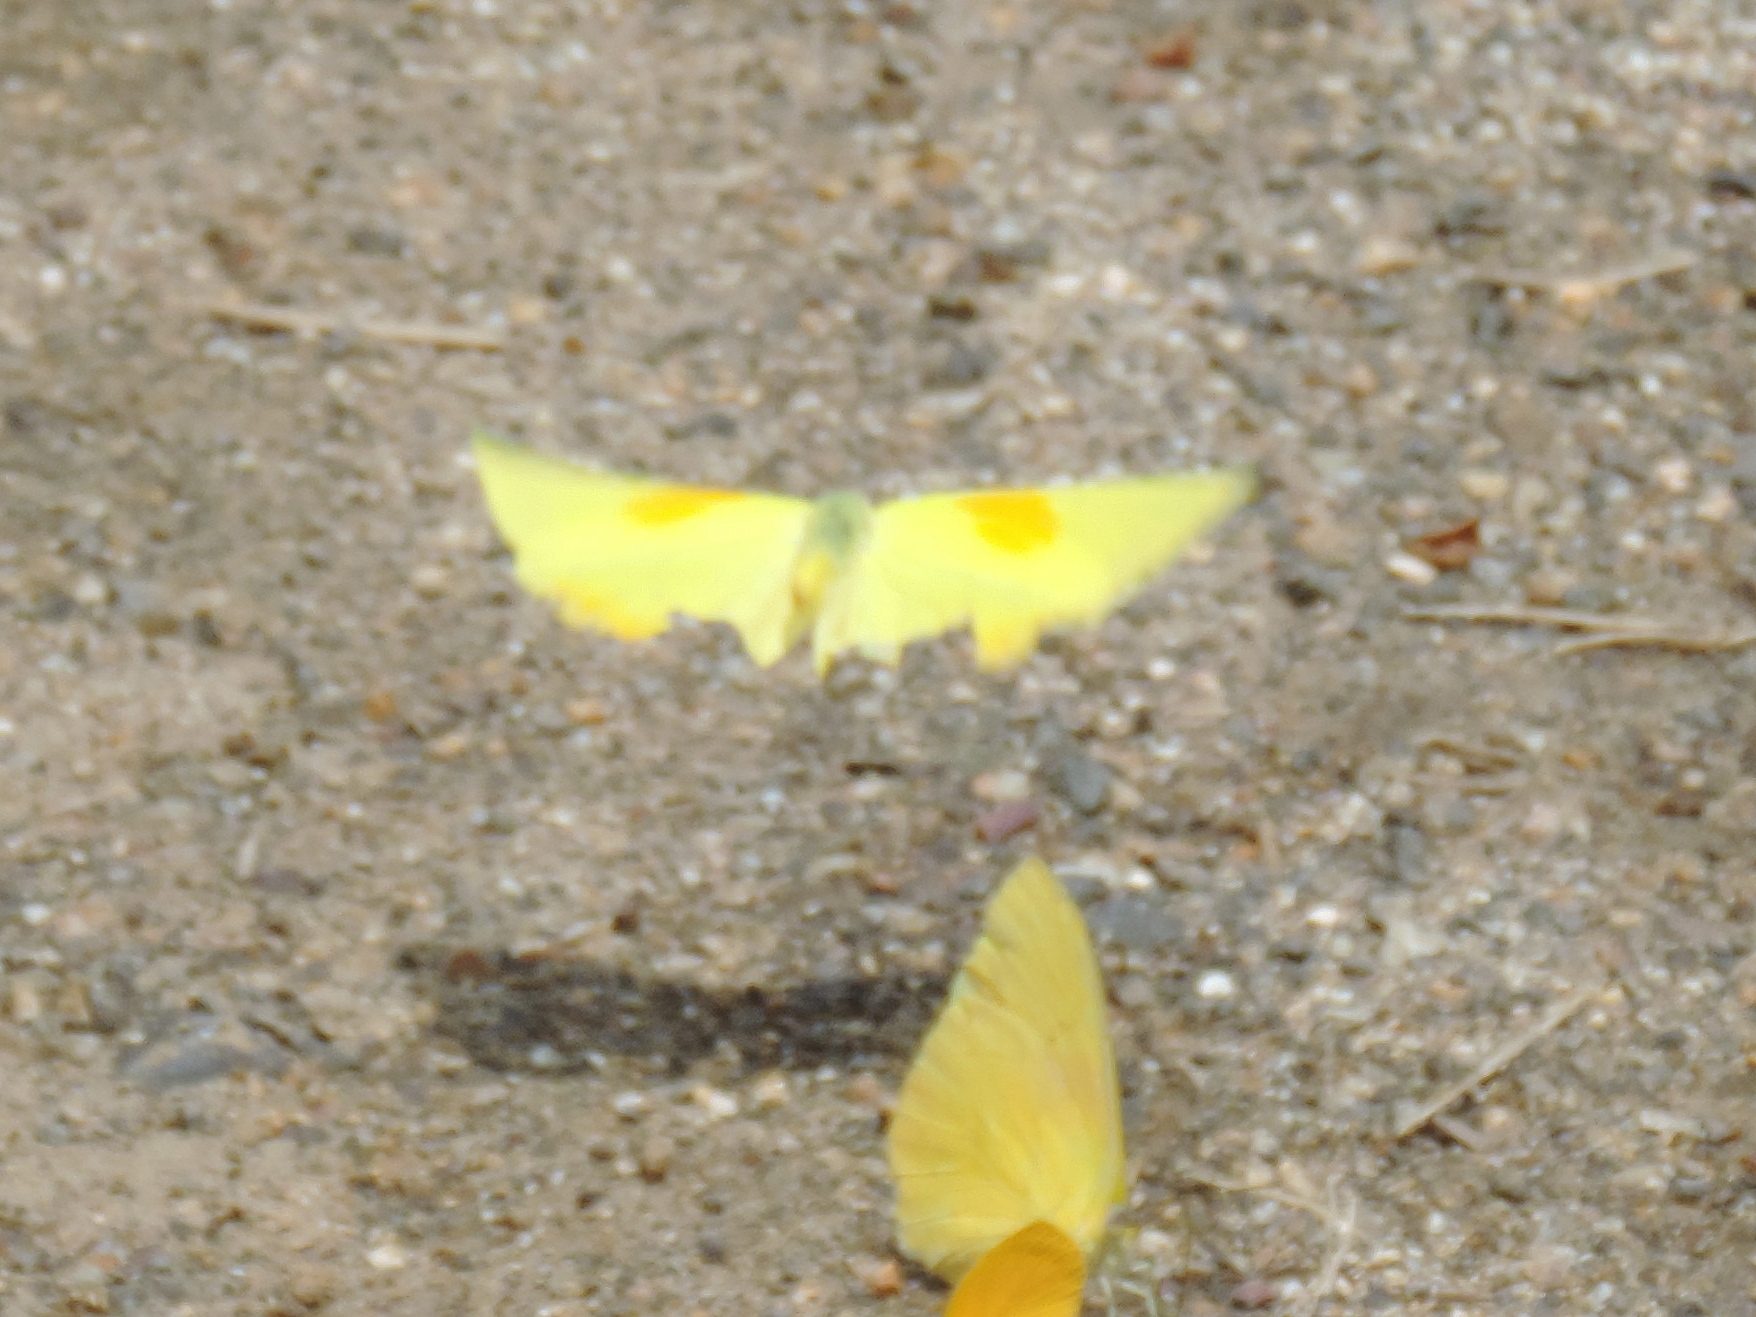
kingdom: Animalia
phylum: Arthropoda
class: Insecta
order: Lepidoptera
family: Pieridae
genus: Phoebis
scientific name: Phoebis philea
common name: Orange-barred giant sulphur
